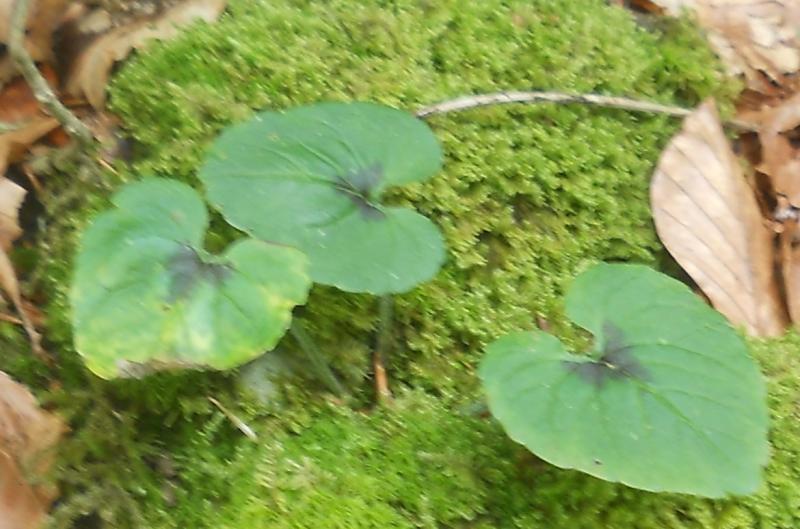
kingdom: Plantae
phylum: Tracheophyta
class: Magnoliopsida
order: Asterales
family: Campanulaceae
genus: Phyteuma
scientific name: Phyteuma spicatum
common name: Spiked rampion
